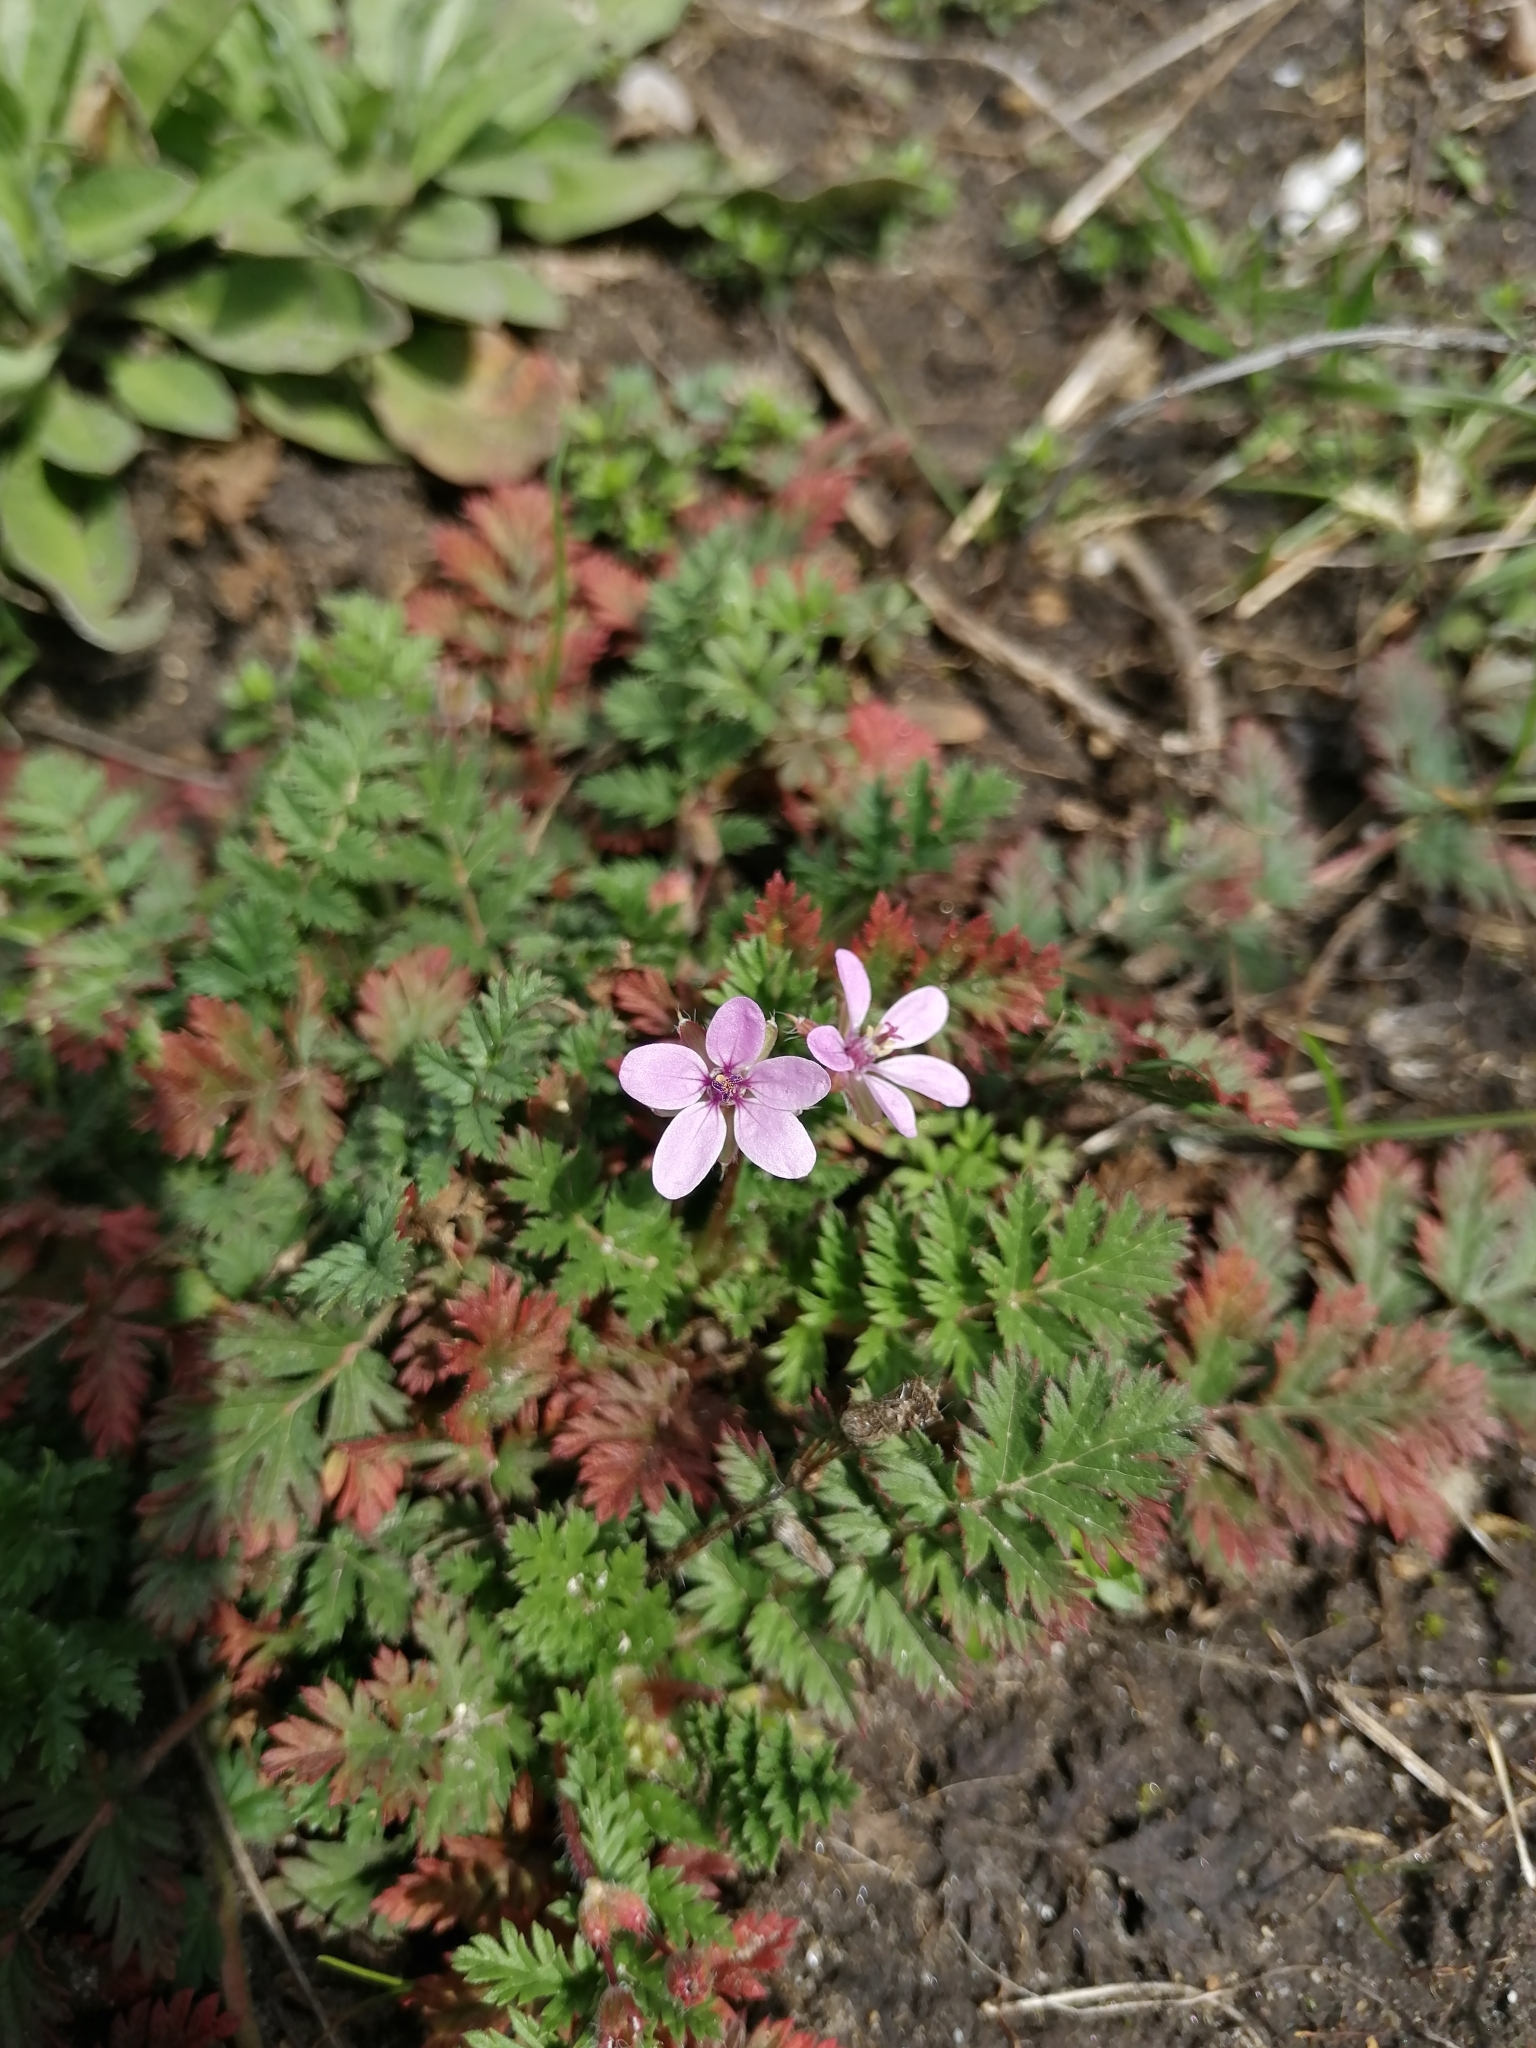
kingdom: Plantae
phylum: Tracheophyta
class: Magnoliopsida
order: Geraniales
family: Geraniaceae
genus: Erodium
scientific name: Erodium cicutarium
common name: Common stork's-bill
